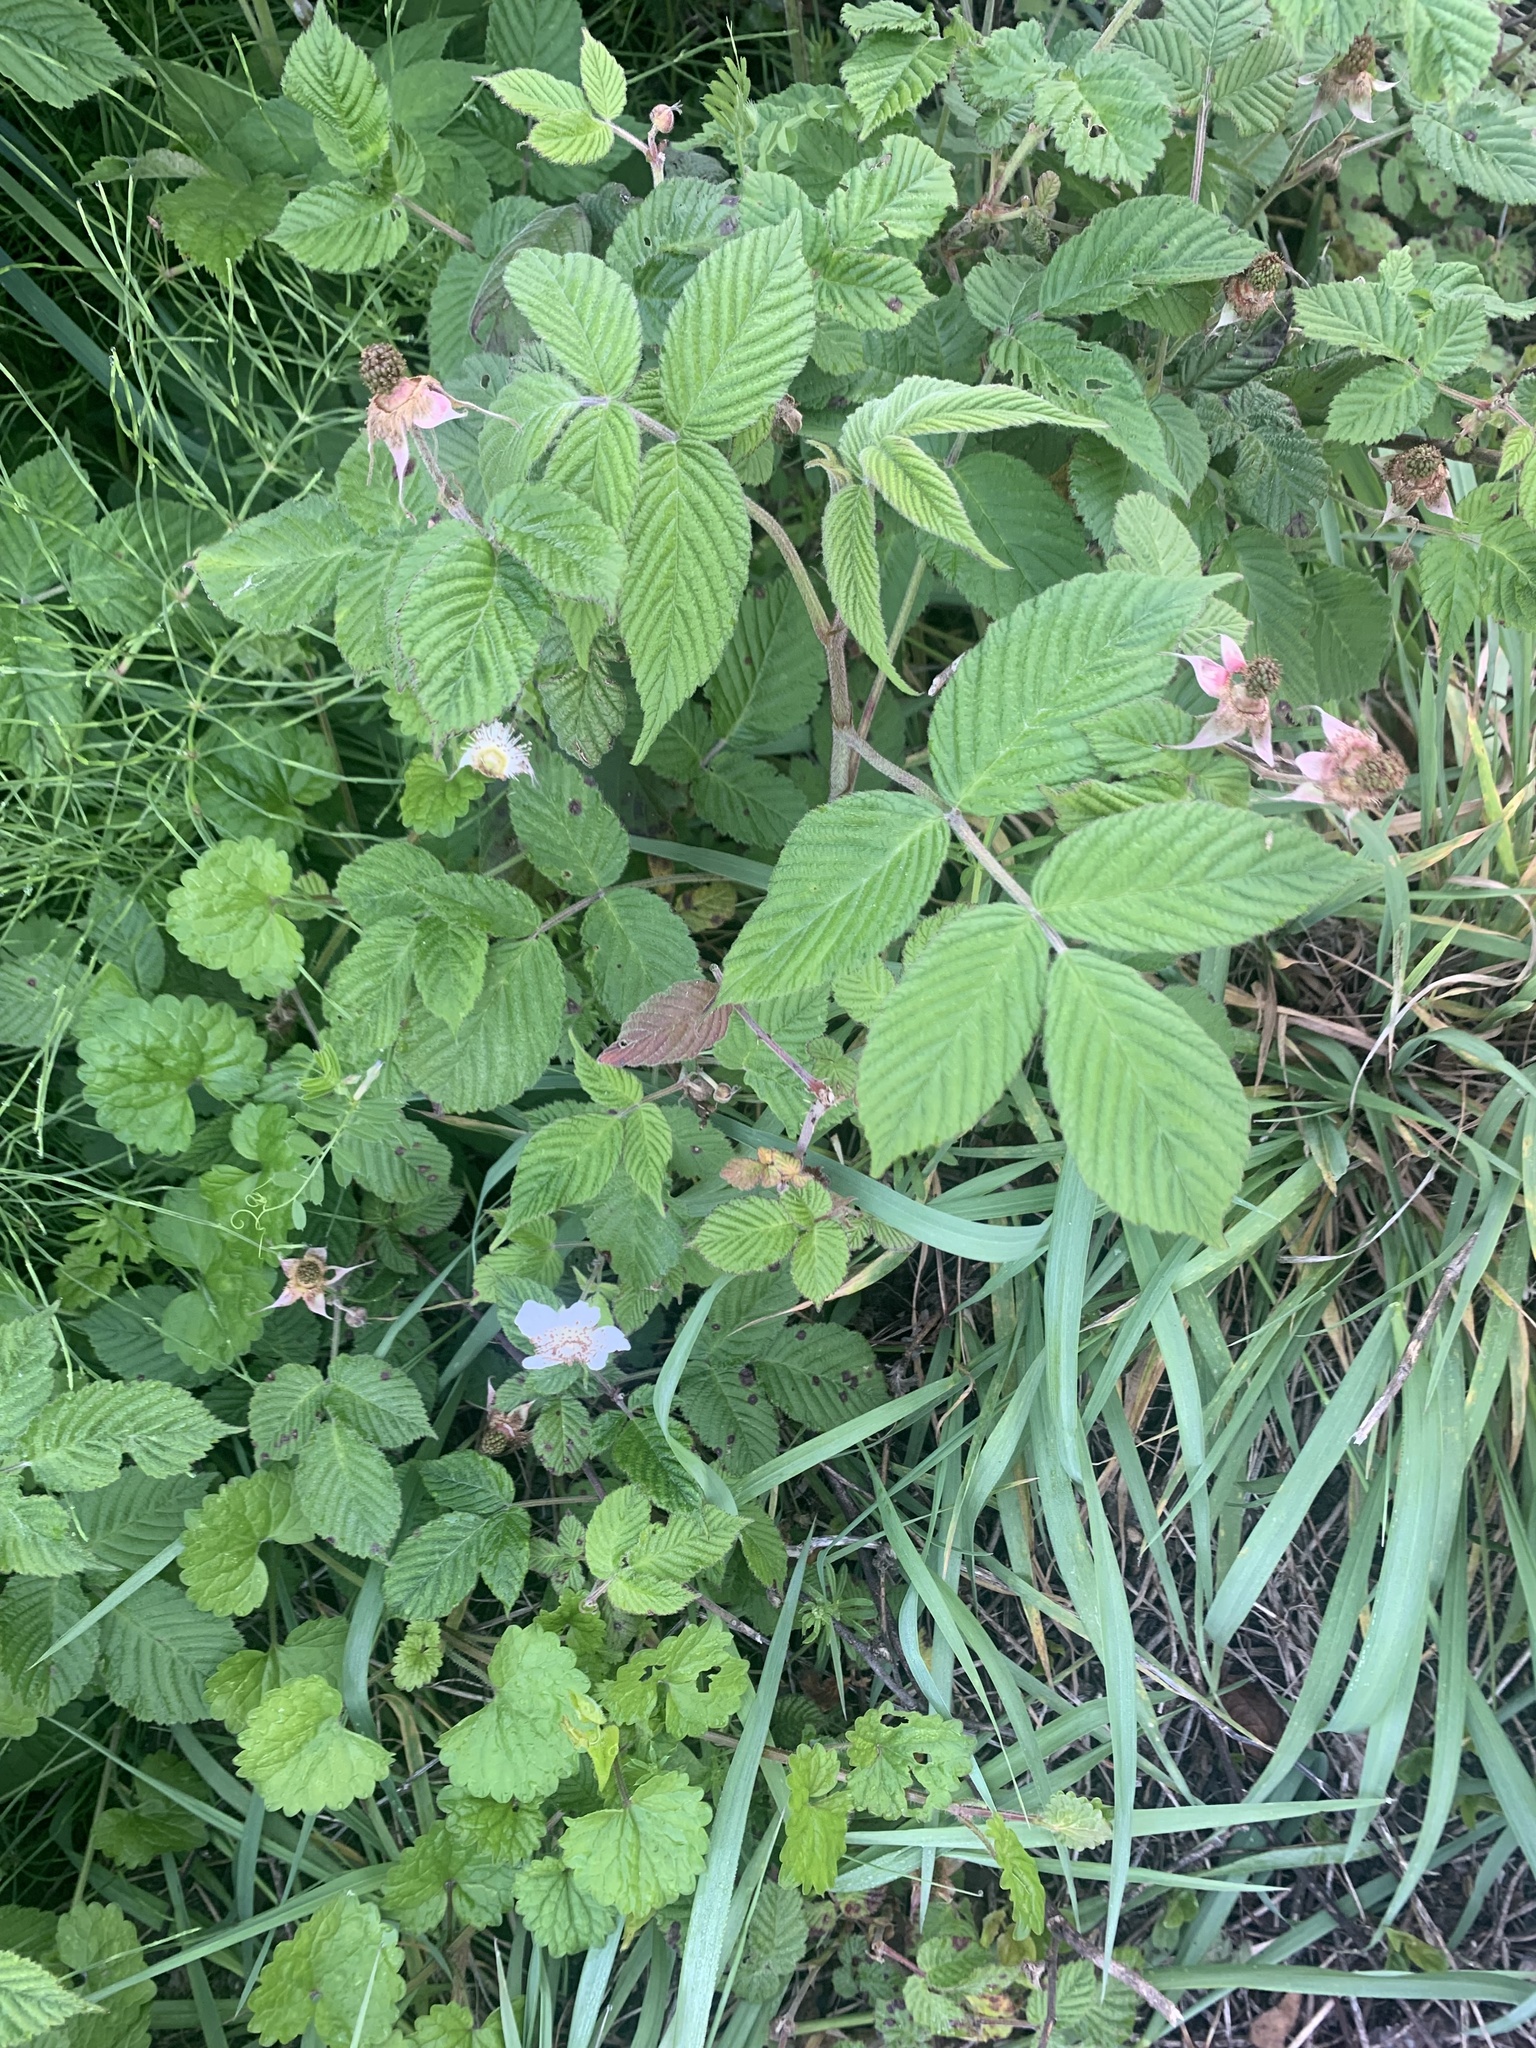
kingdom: Plantae
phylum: Tracheophyta
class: Magnoliopsida
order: Rosales
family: Rosaceae
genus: Rubus
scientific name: Rubus hirsutus
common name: Hirsute raspberry
